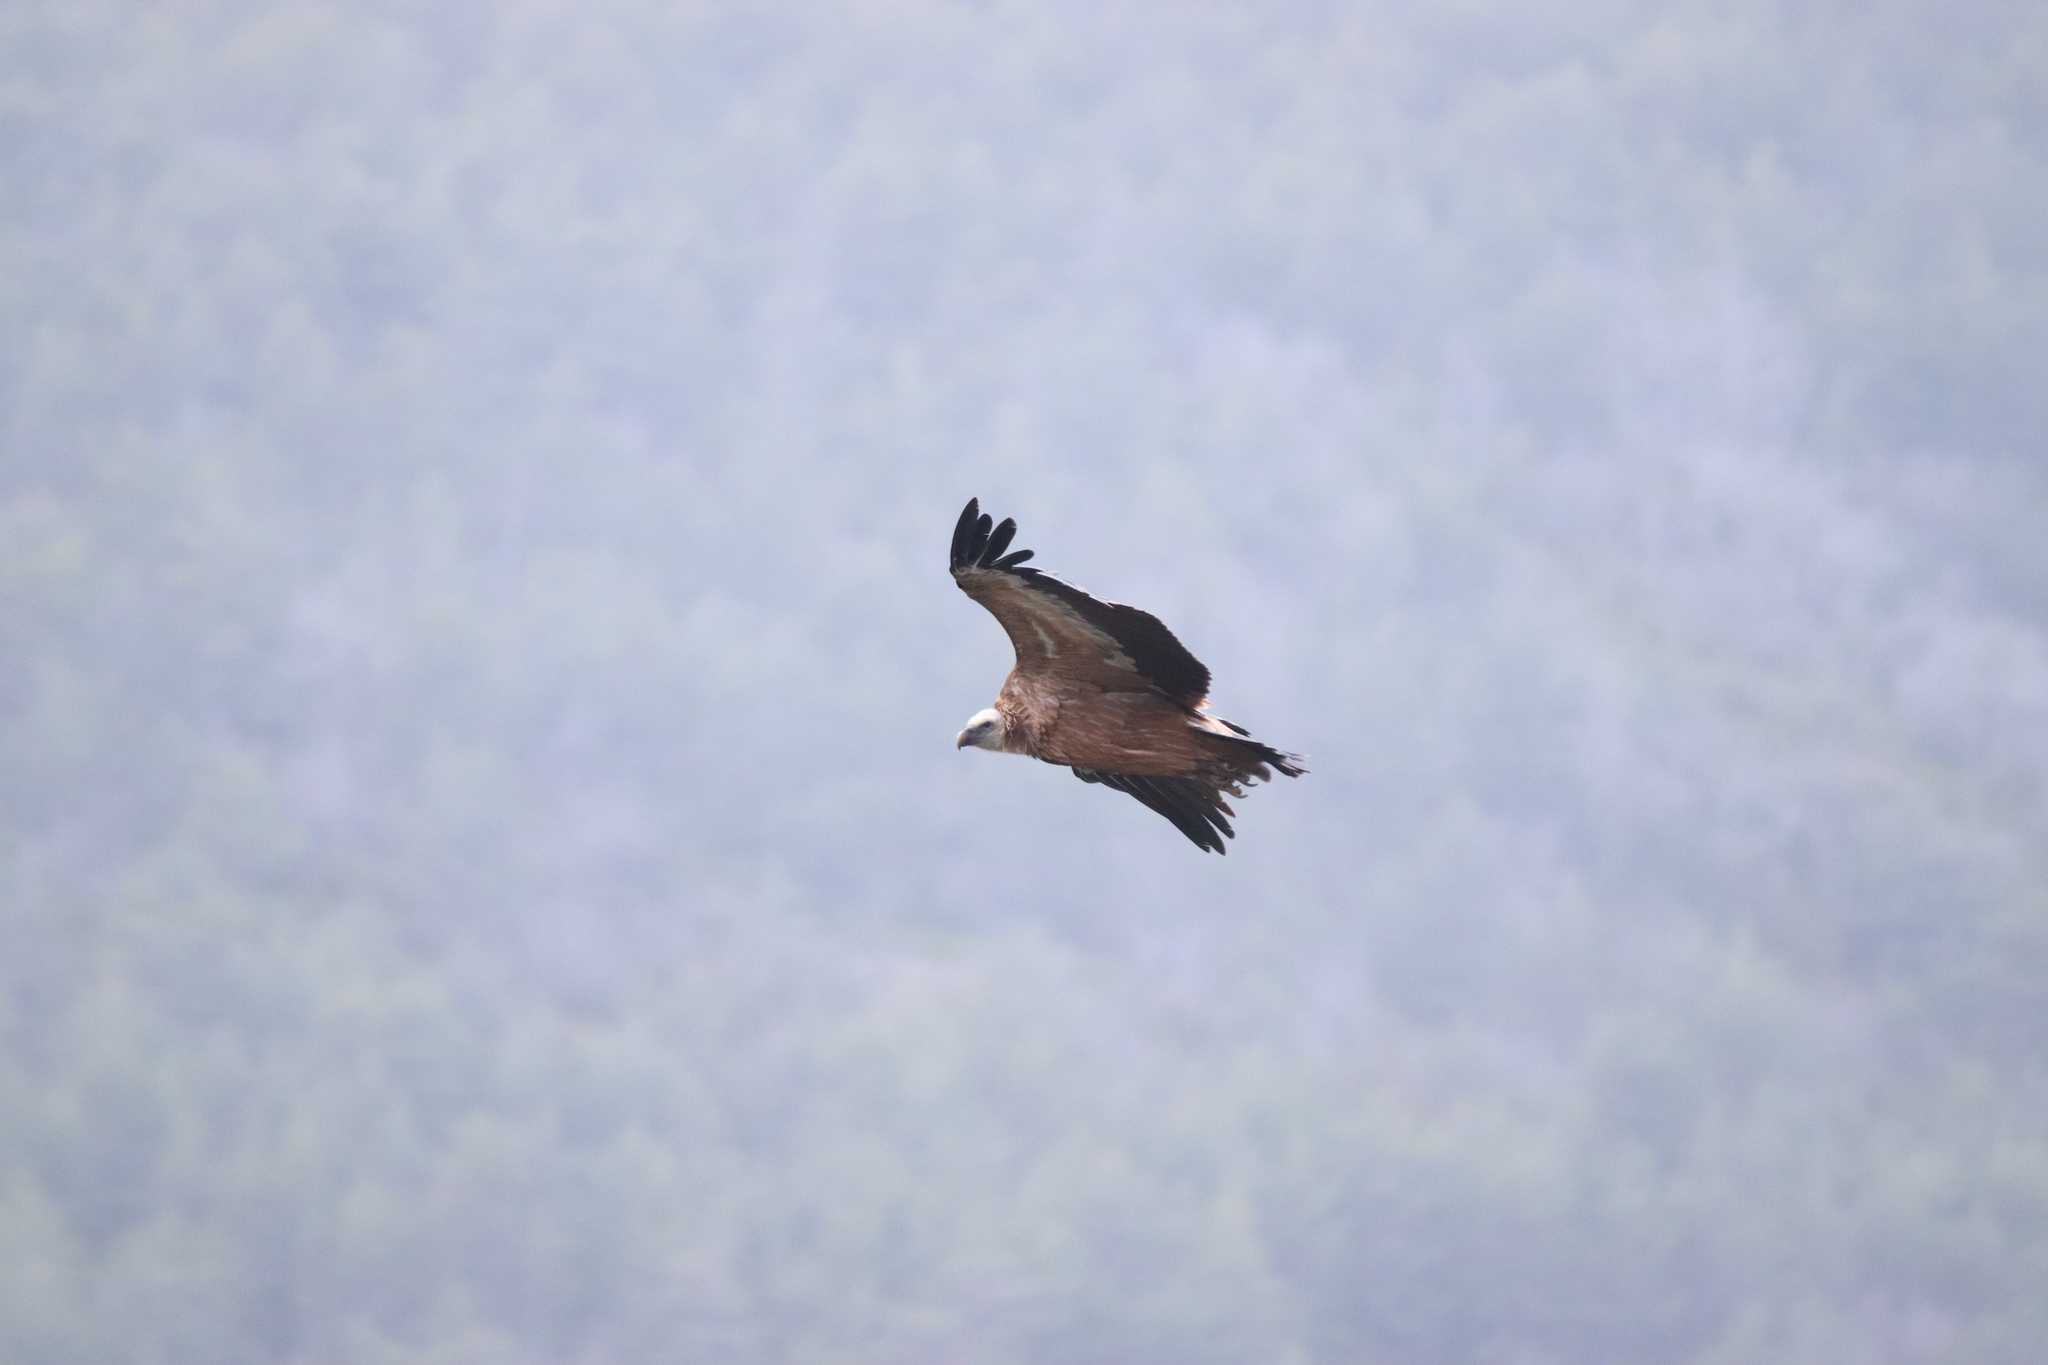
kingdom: Animalia
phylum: Chordata
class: Aves
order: Accipitriformes
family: Accipitridae
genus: Gyps
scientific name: Gyps fulvus
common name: Griffon vulture
